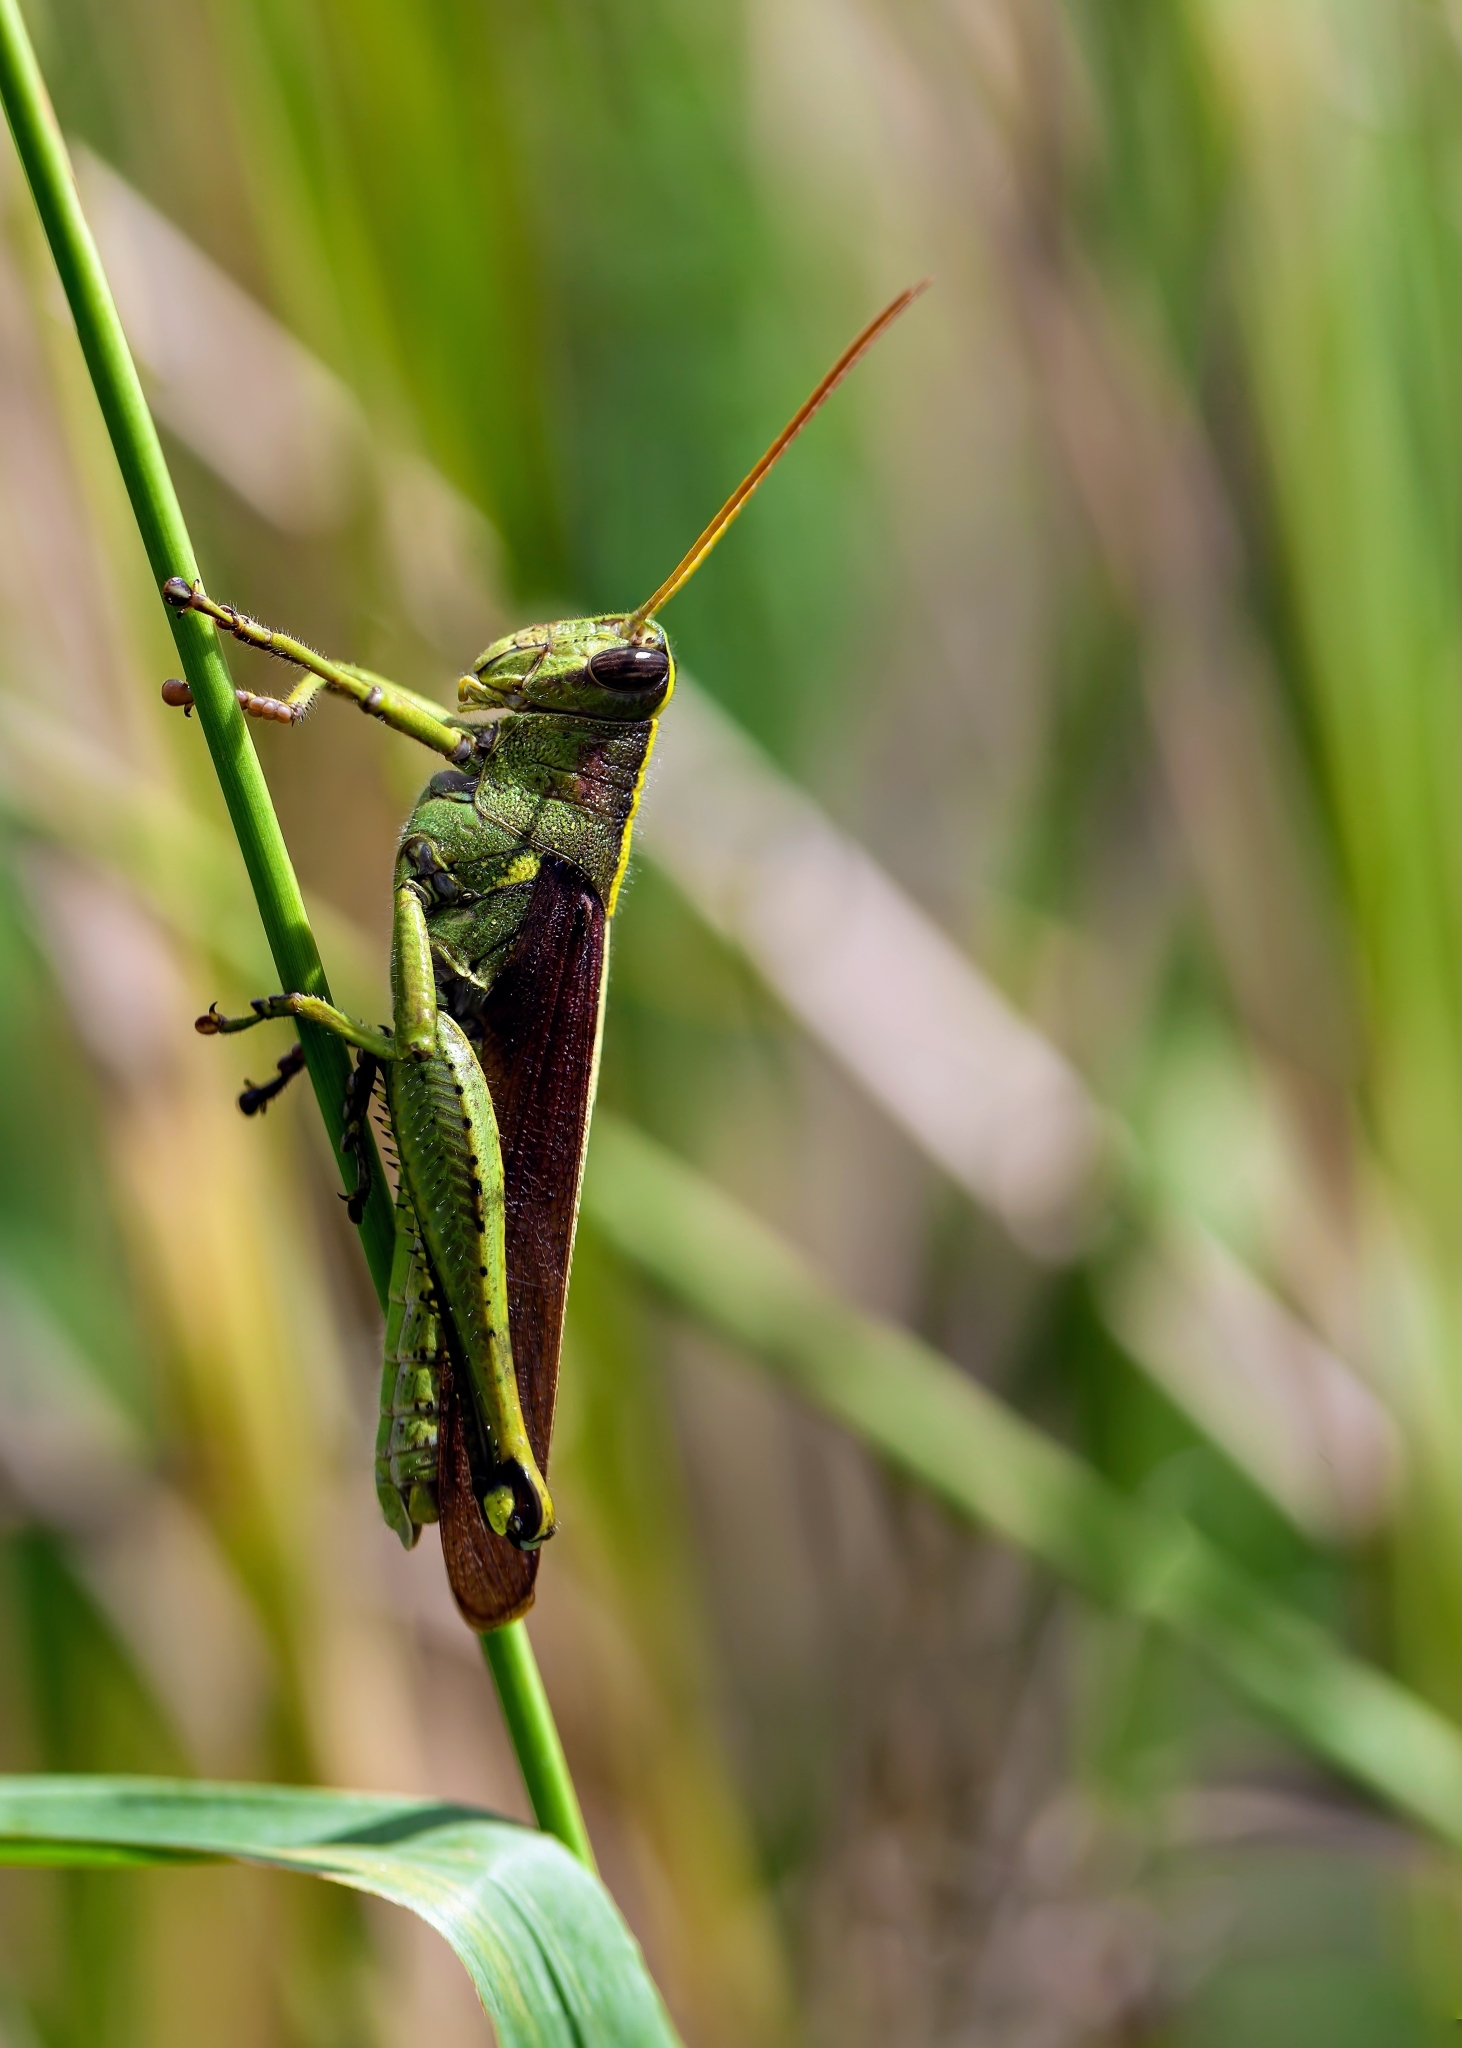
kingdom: Animalia
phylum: Arthropoda
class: Insecta
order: Orthoptera
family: Acrididae
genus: Schistocerca
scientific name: Schistocerca obscura
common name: Obscure bird grasshopper
